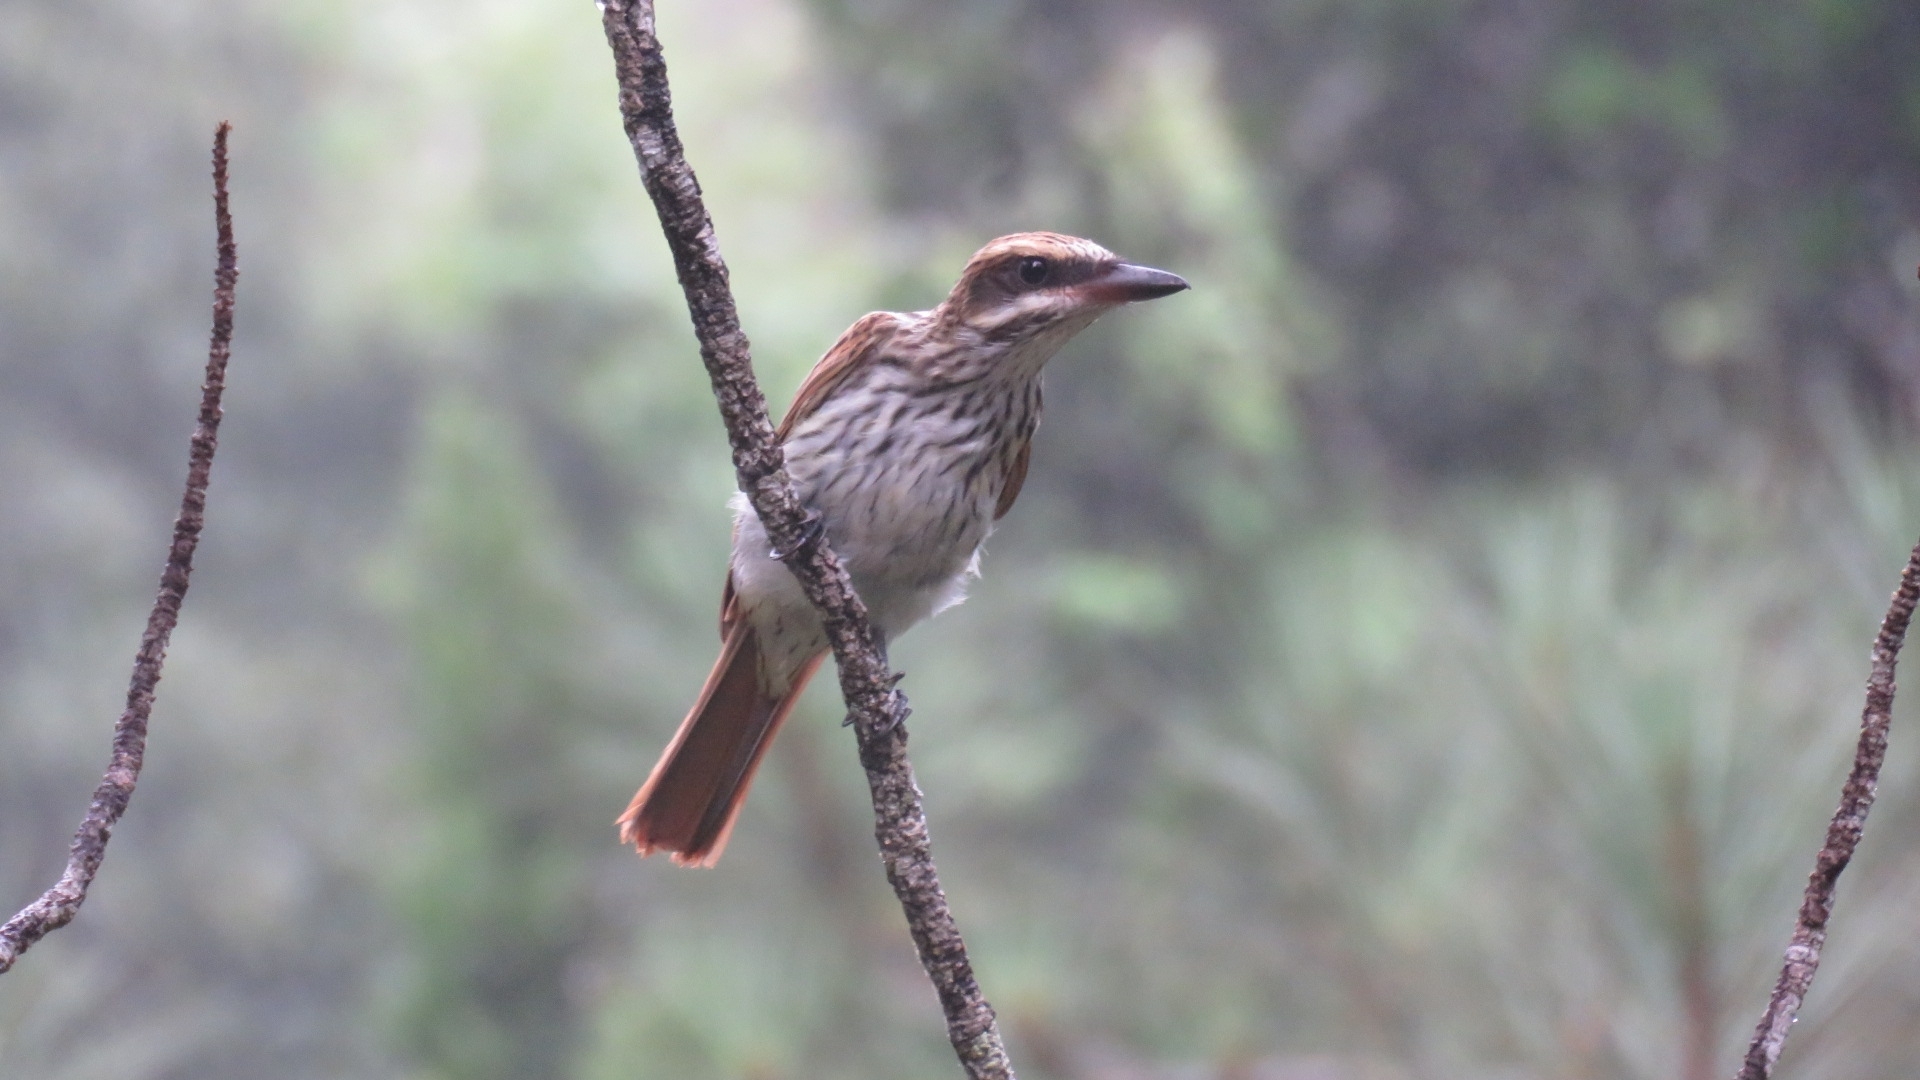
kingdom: Animalia
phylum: Chordata
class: Aves
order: Passeriformes
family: Tyrannidae
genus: Myiodynastes
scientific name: Myiodynastes maculatus
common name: Streaked flycatcher
